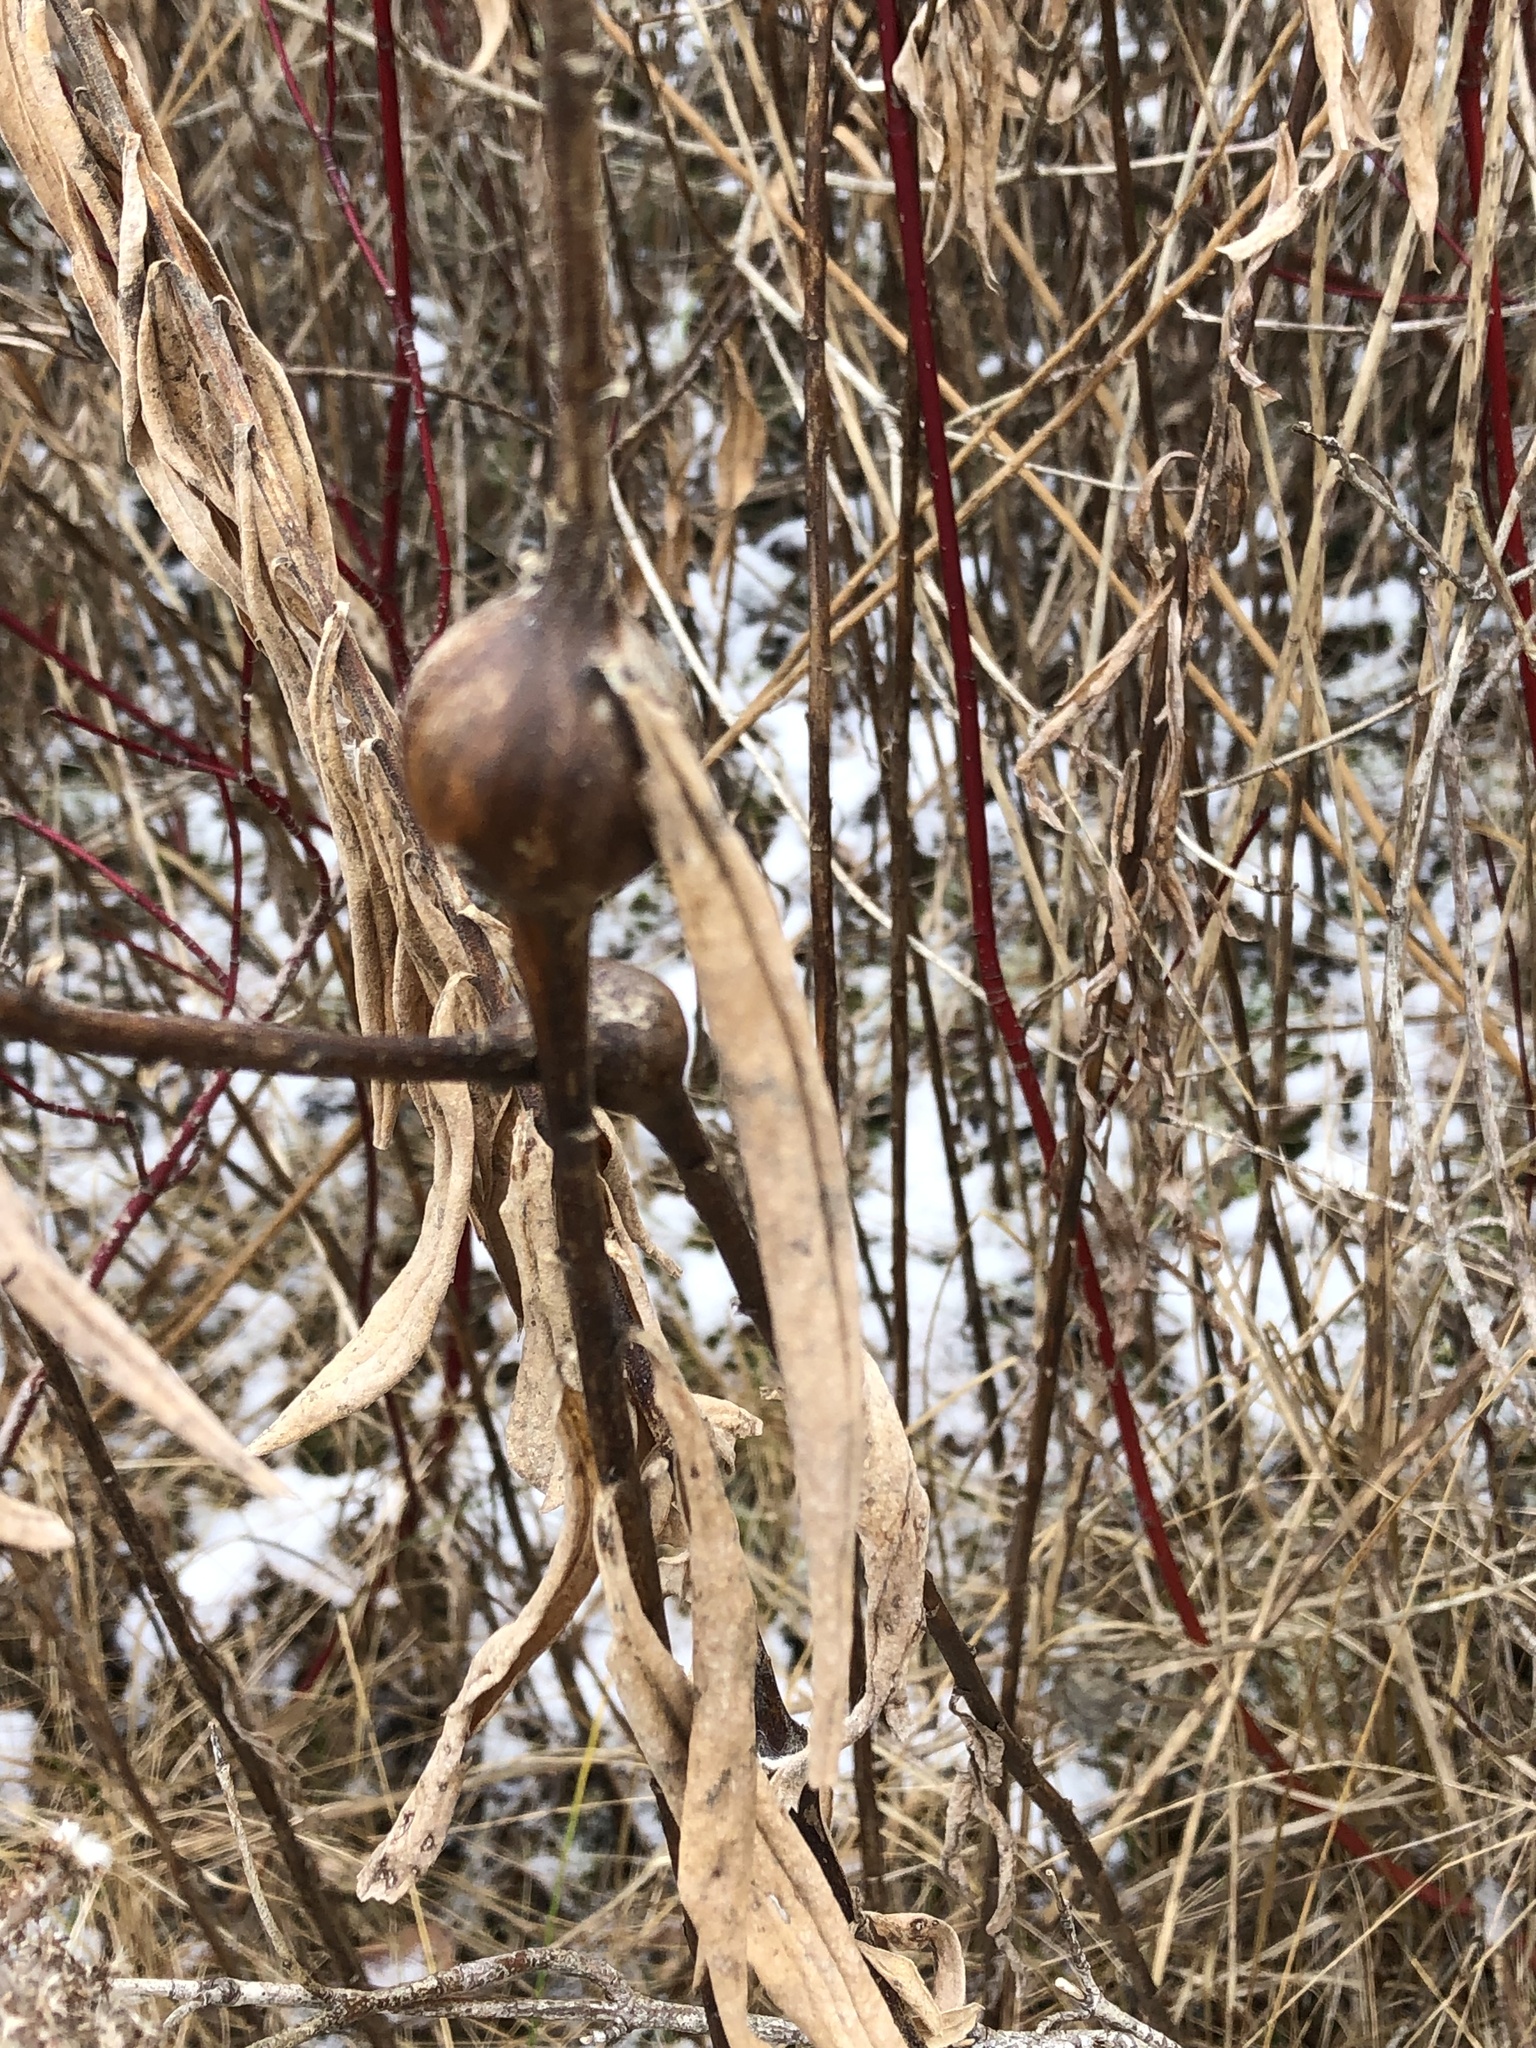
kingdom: Animalia
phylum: Arthropoda
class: Insecta
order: Diptera
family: Tephritidae
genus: Eurosta
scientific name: Eurosta solidaginis
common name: Goldenrod gall fly
